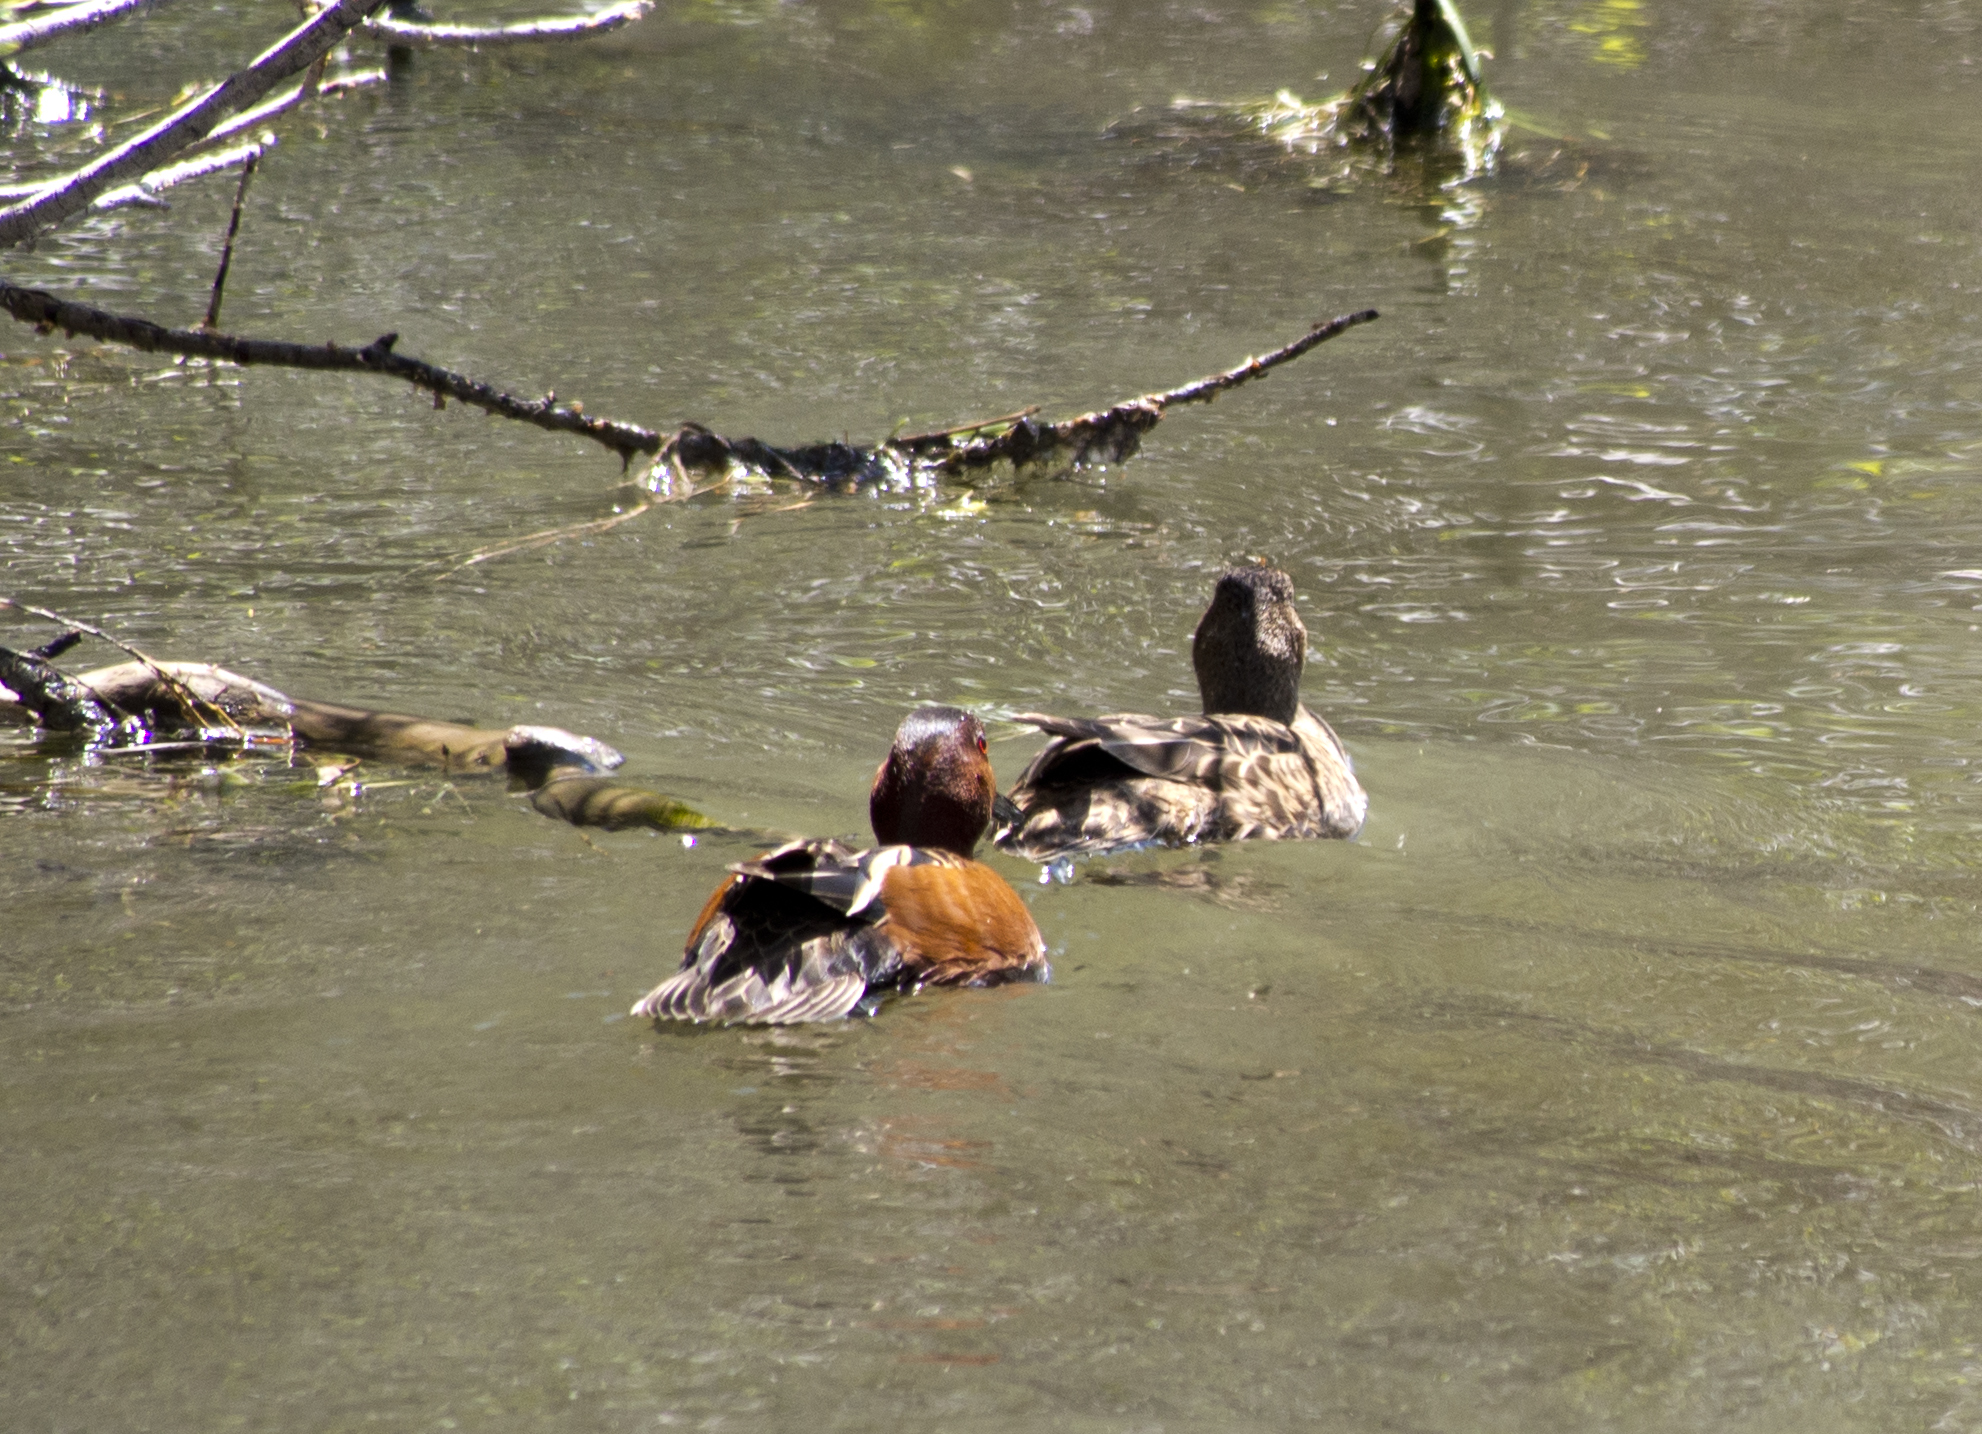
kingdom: Animalia
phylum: Chordata
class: Aves
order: Anseriformes
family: Anatidae
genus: Spatula
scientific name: Spatula cyanoptera
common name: Cinnamon teal
